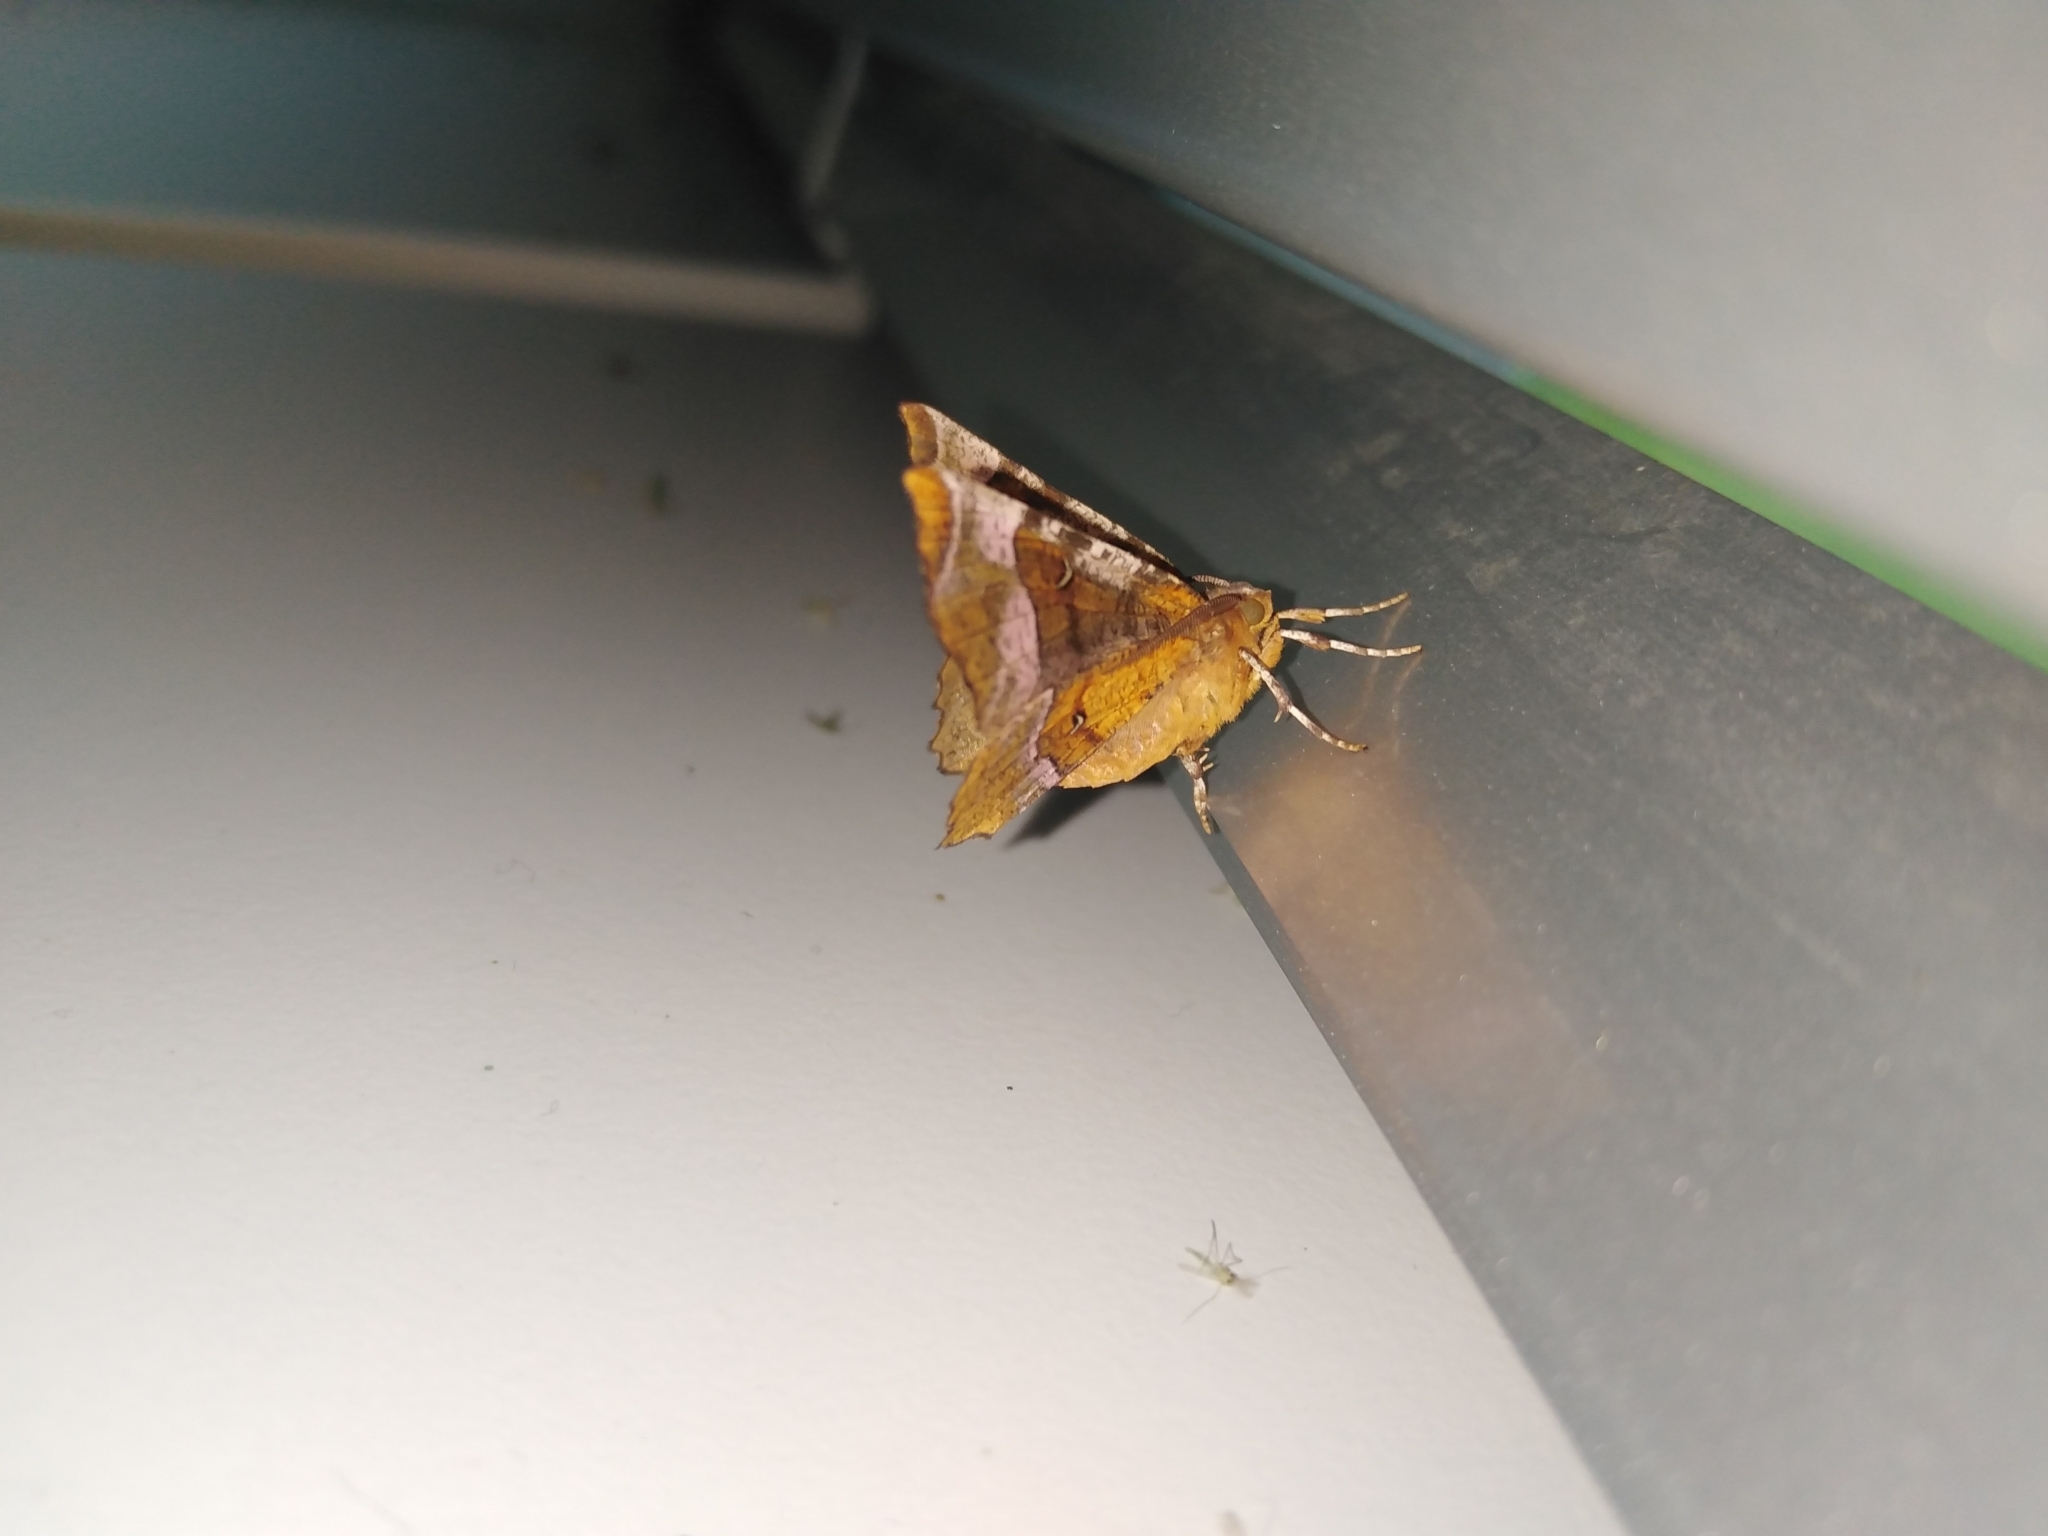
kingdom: Animalia
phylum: Arthropoda
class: Insecta
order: Lepidoptera
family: Geometridae
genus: Selenia
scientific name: Selenia tetralunaria
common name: Purple thorn
